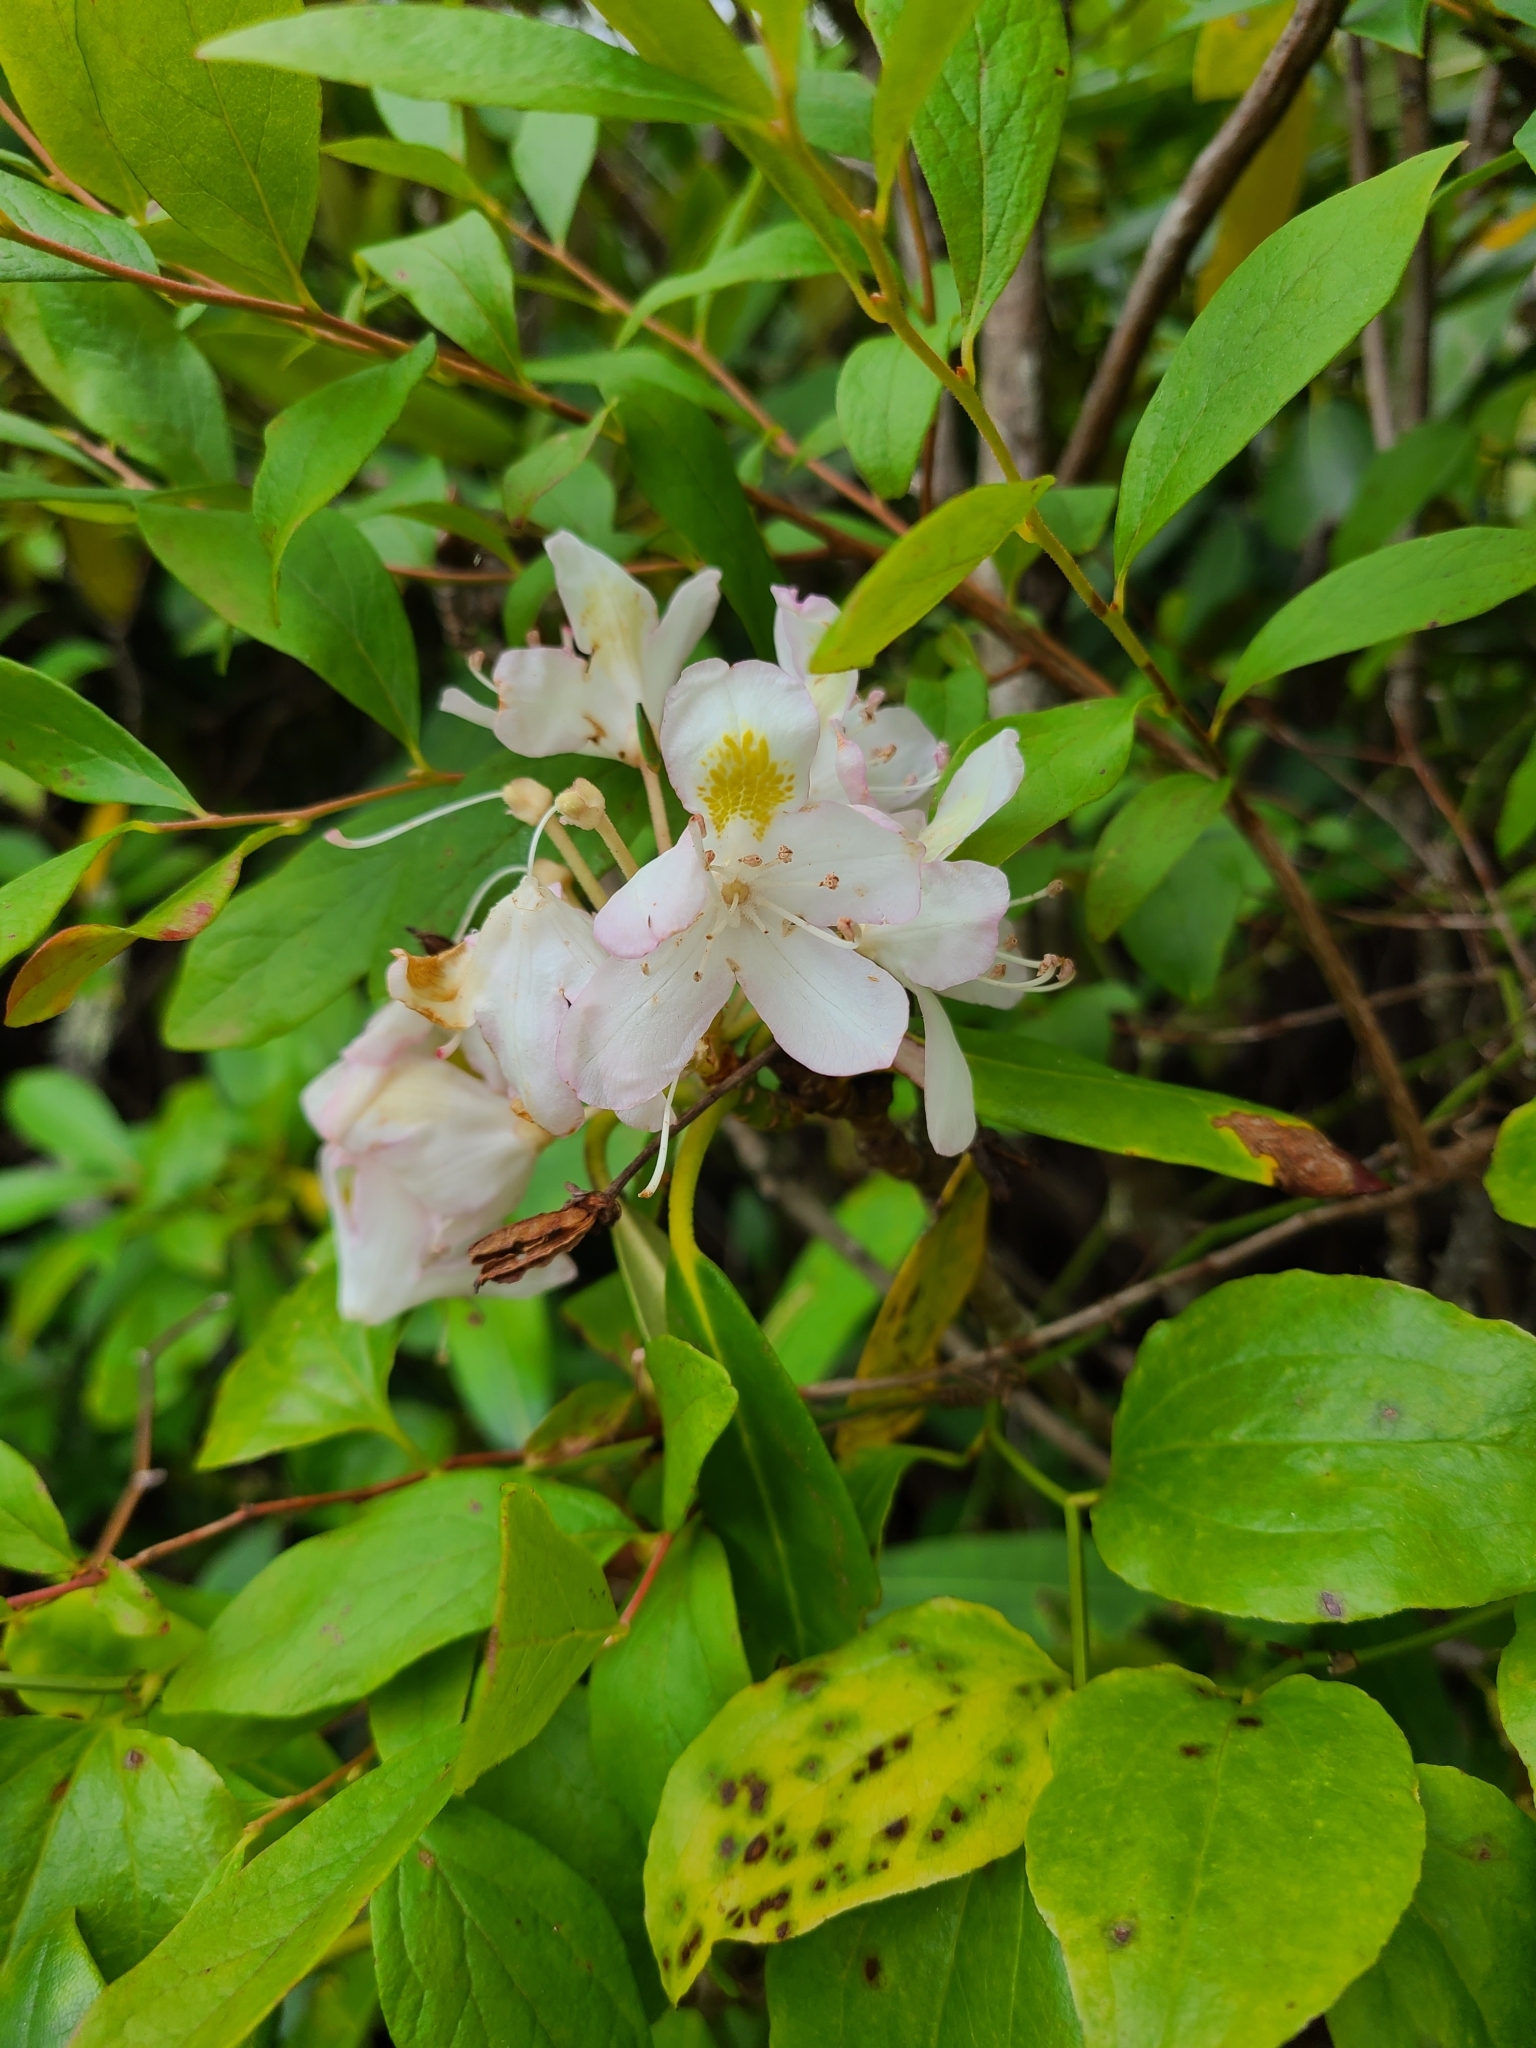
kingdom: Plantae
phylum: Tracheophyta
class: Magnoliopsida
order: Ericales
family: Ericaceae
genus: Rhododendron
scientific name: Rhododendron maximum
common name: Great rhododendron
